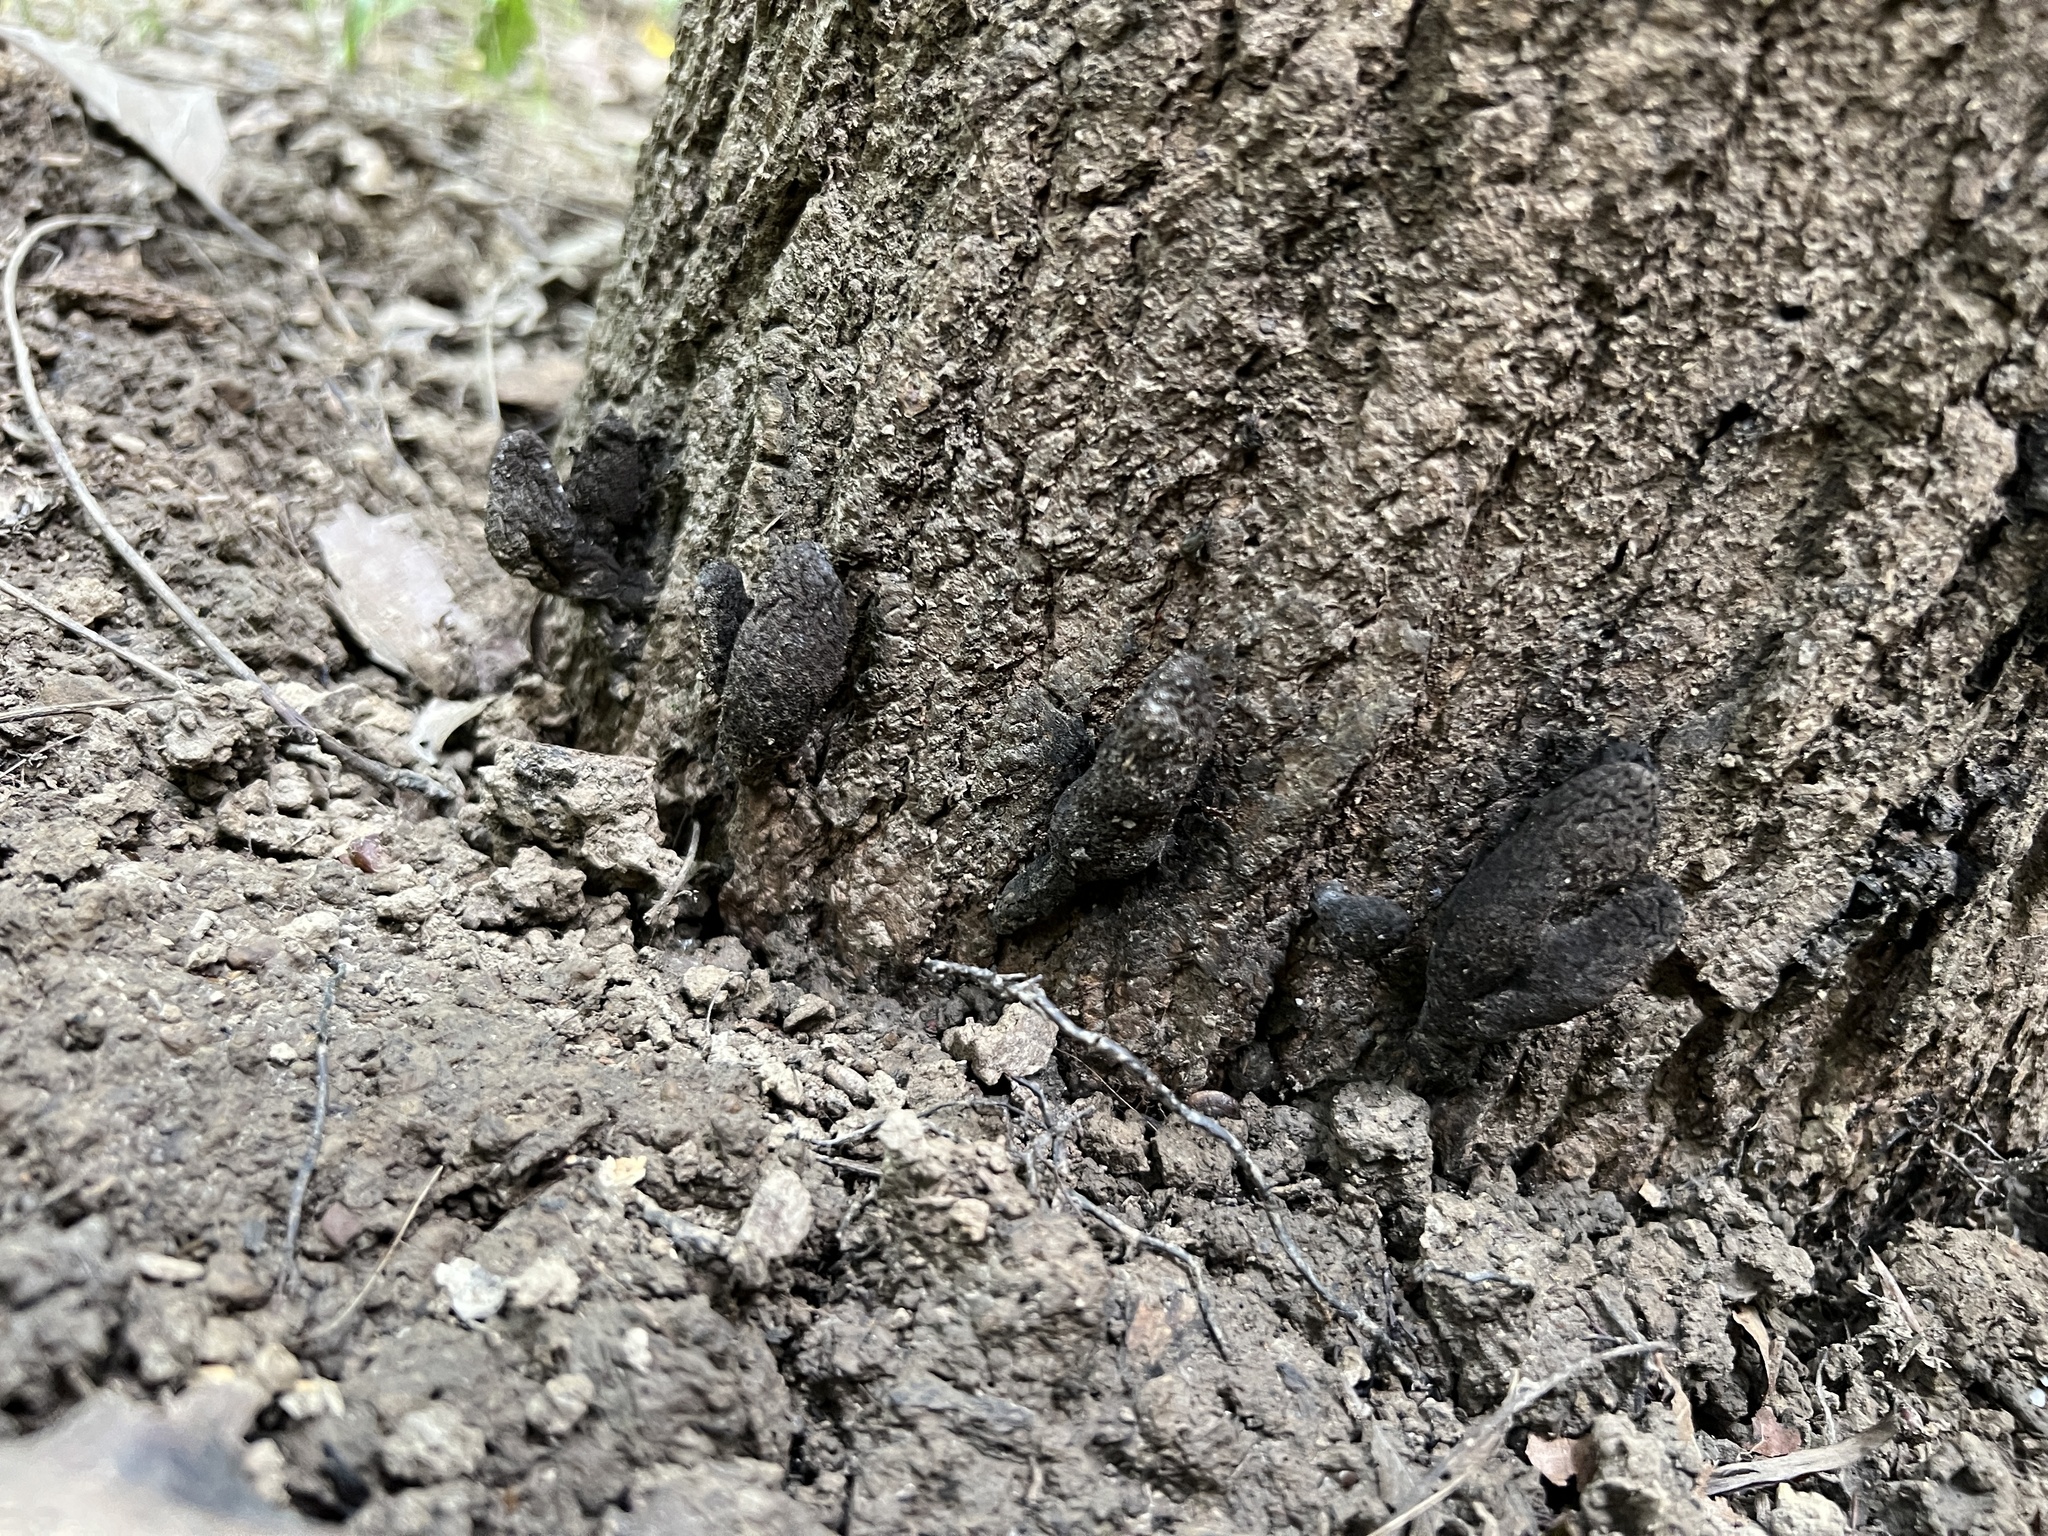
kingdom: Fungi
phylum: Ascomycota
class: Sordariomycetes
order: Xylariales
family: Xylariaceae
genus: Xylaria
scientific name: Xylaria polymorpha
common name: Dead man's fingers
